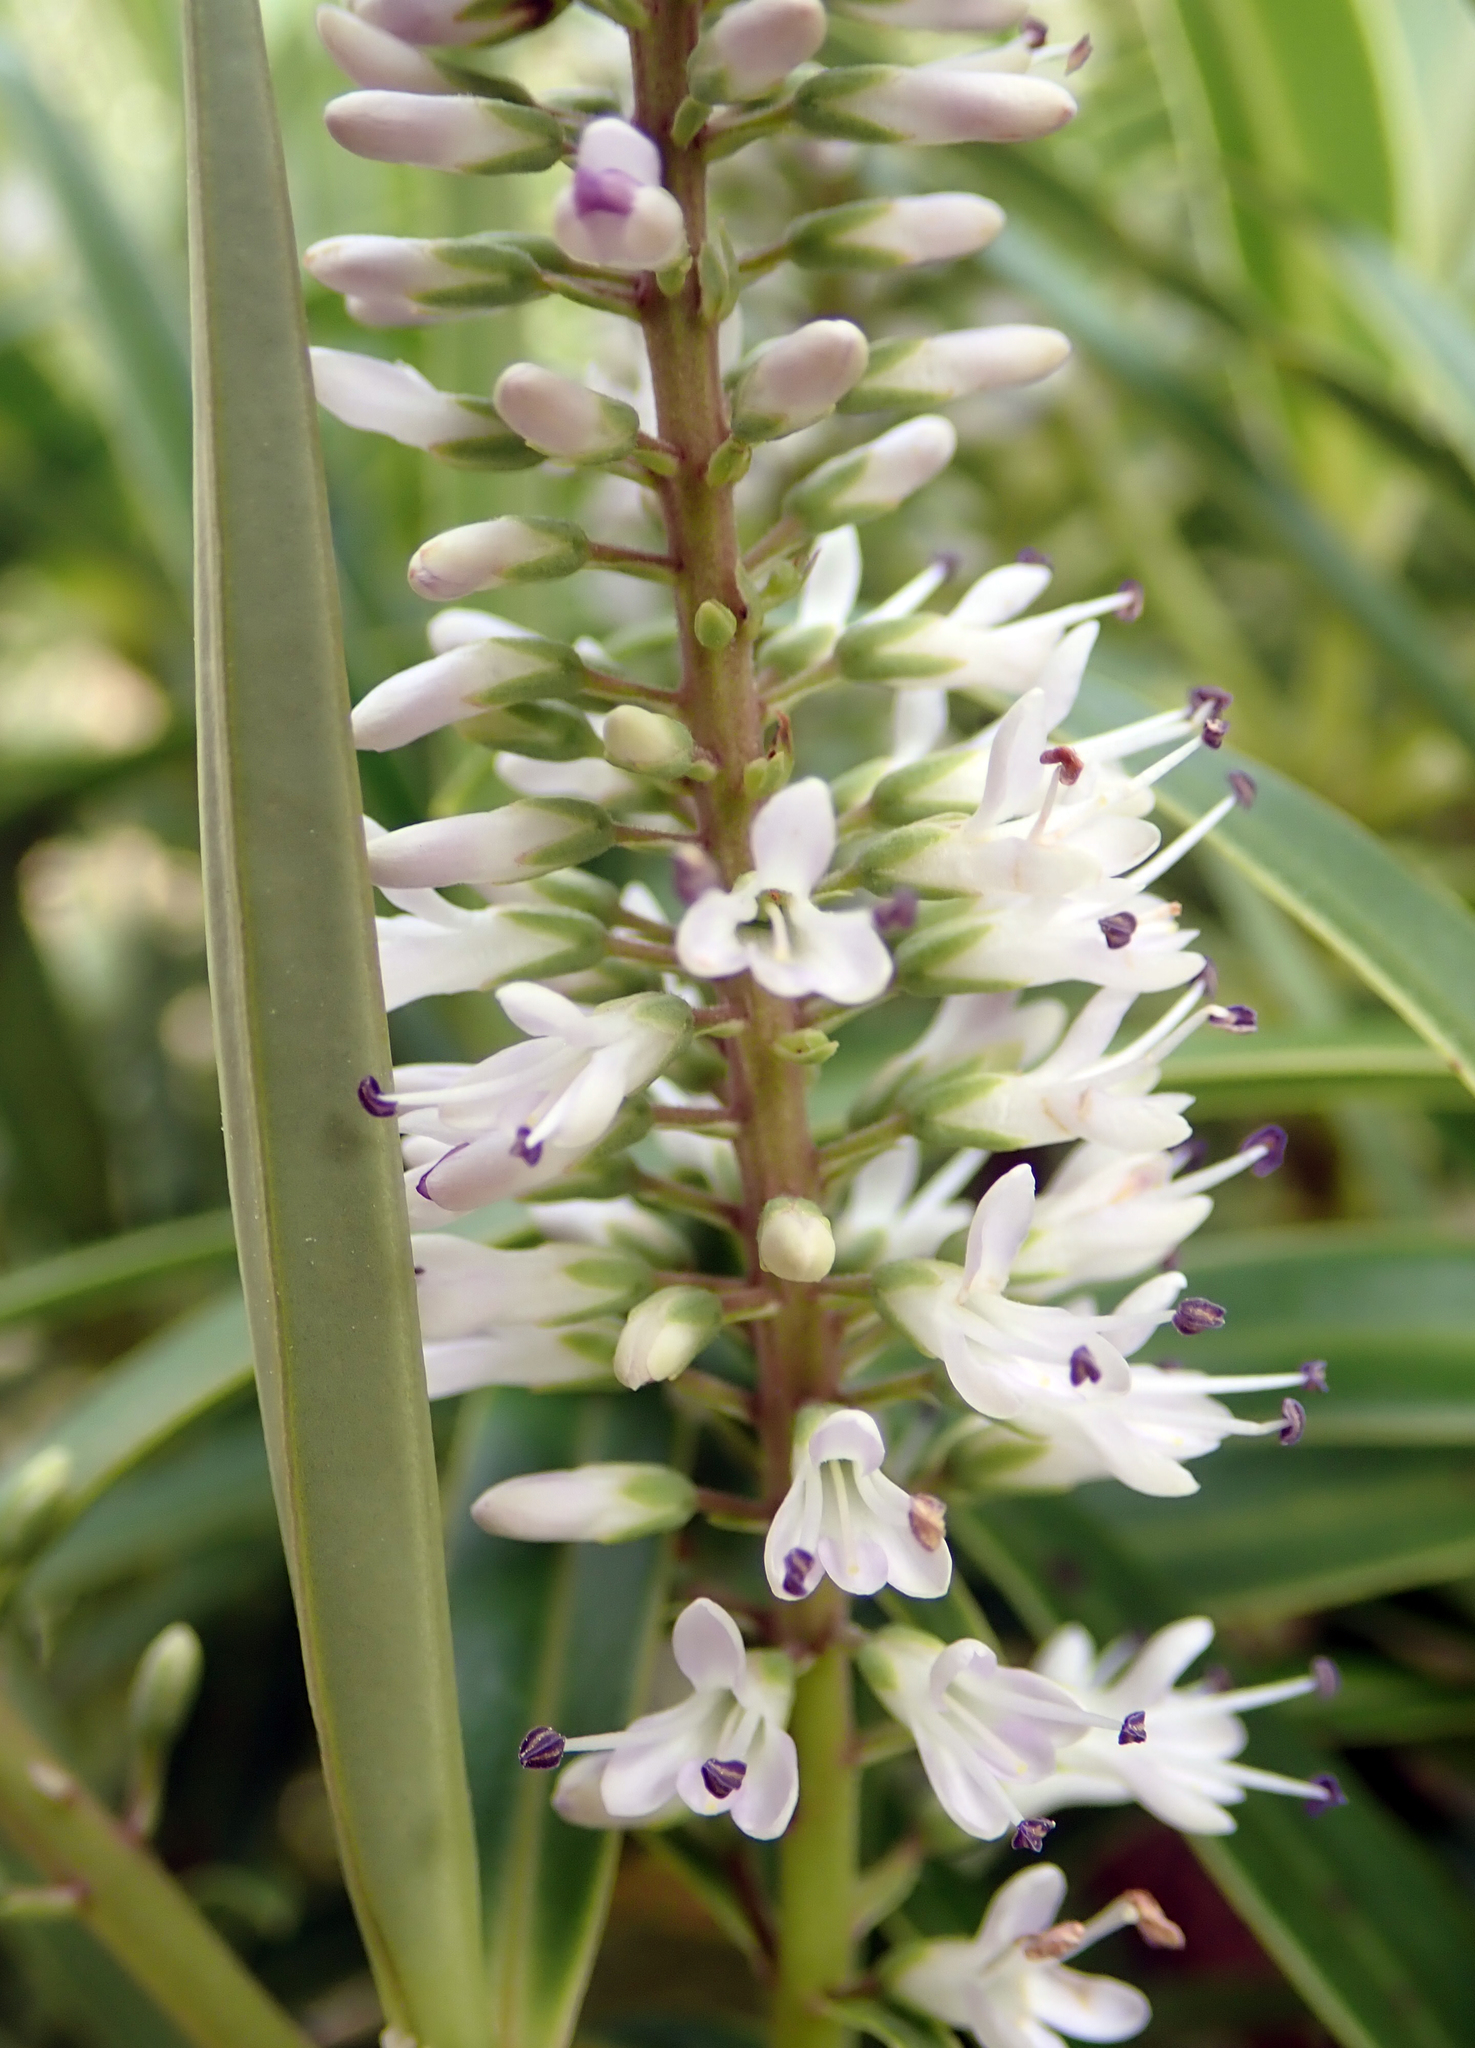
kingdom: Plantae
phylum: Tracheophyta
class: Magnoliopsida
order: Lamiales
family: Plantaginaceae
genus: Veronica
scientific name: Veronica stricta
